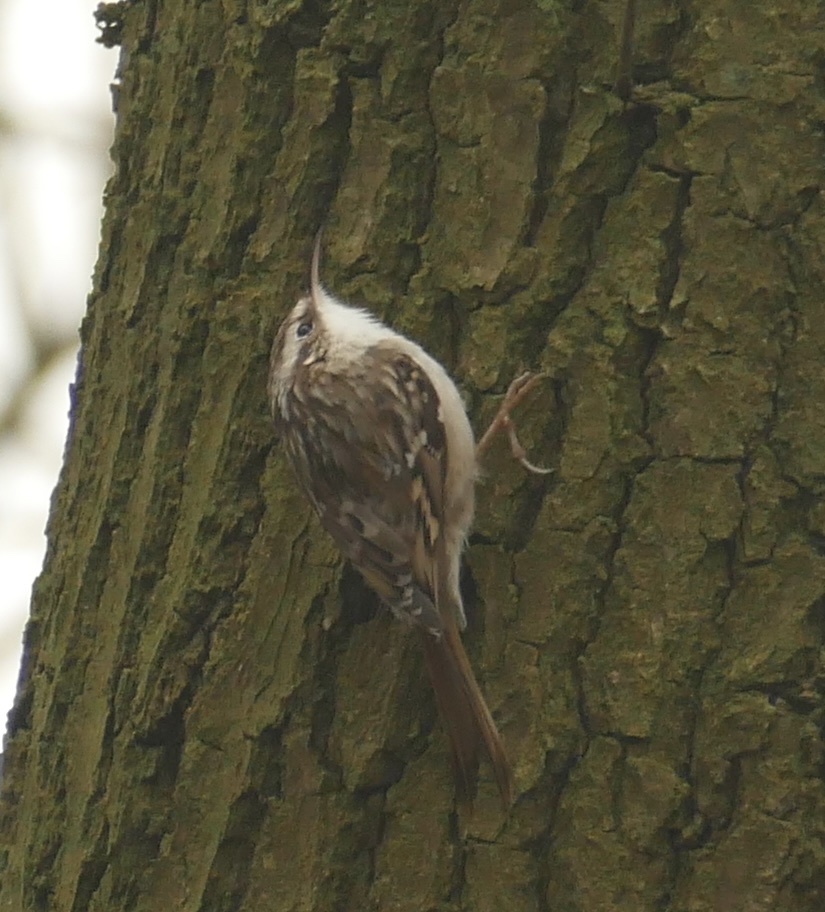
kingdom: Animalia
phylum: Chordata
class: Aves
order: Passeriformes
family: Certhiidae
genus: Certhia
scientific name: Certhia brachydactyla
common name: Short-toed treecreeper
